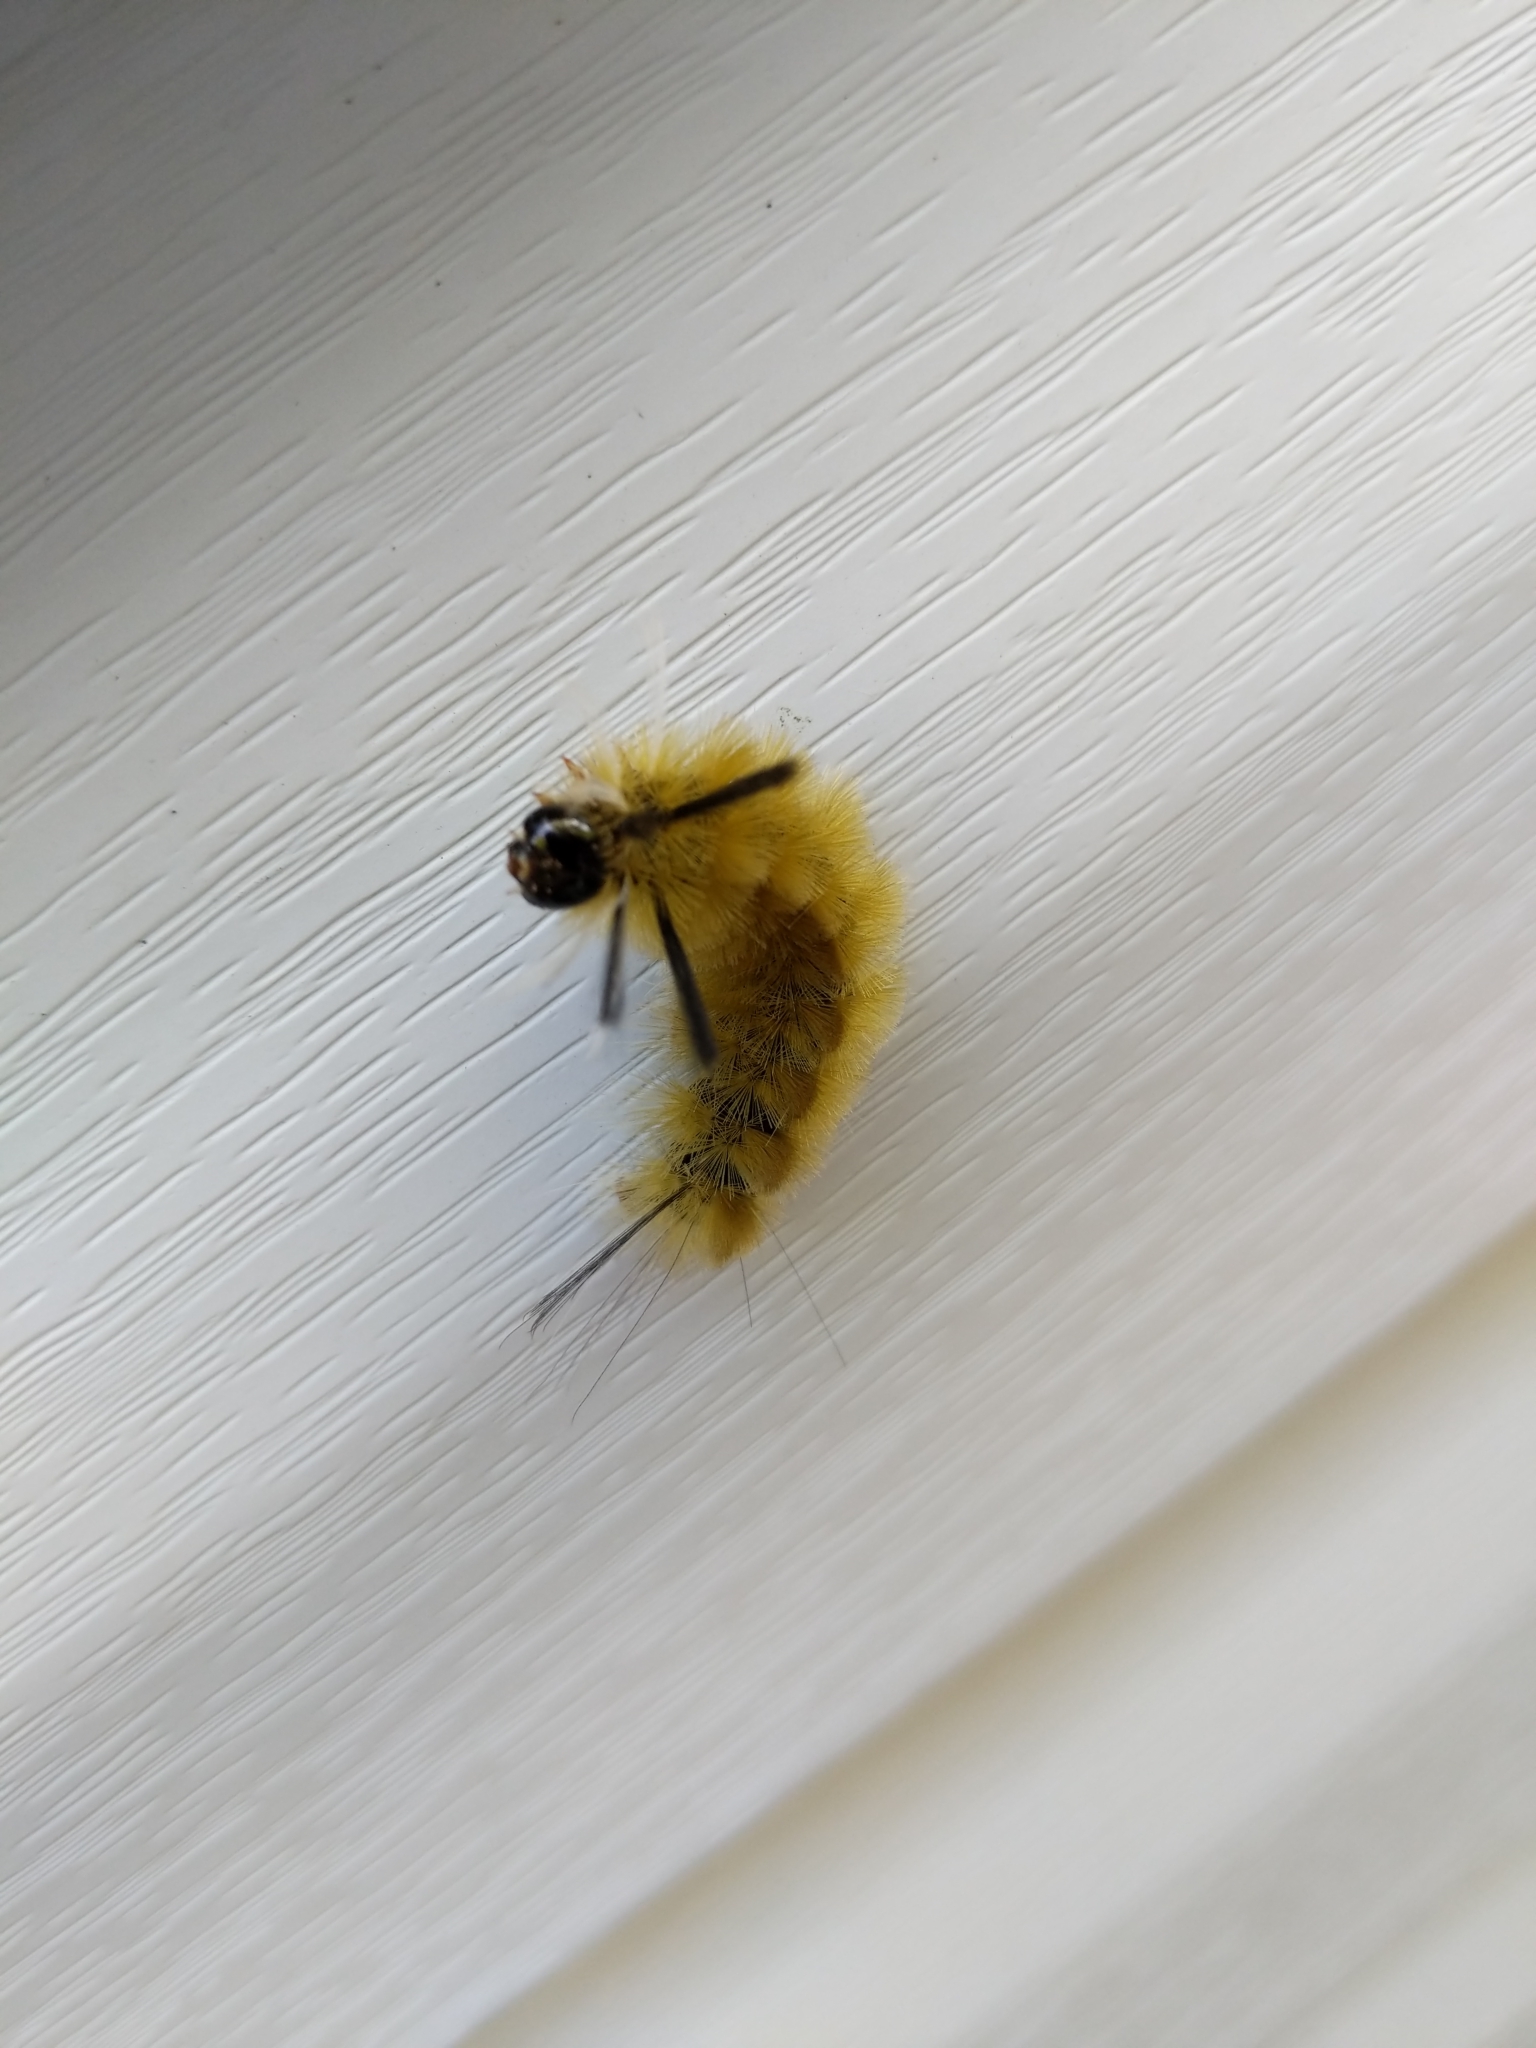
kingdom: Animalia
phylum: Arthropoda
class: Insecta
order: Lepidoptera
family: Erebidae
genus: Halysidota
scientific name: Halysidota tessellaris
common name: Banded tussock moth
